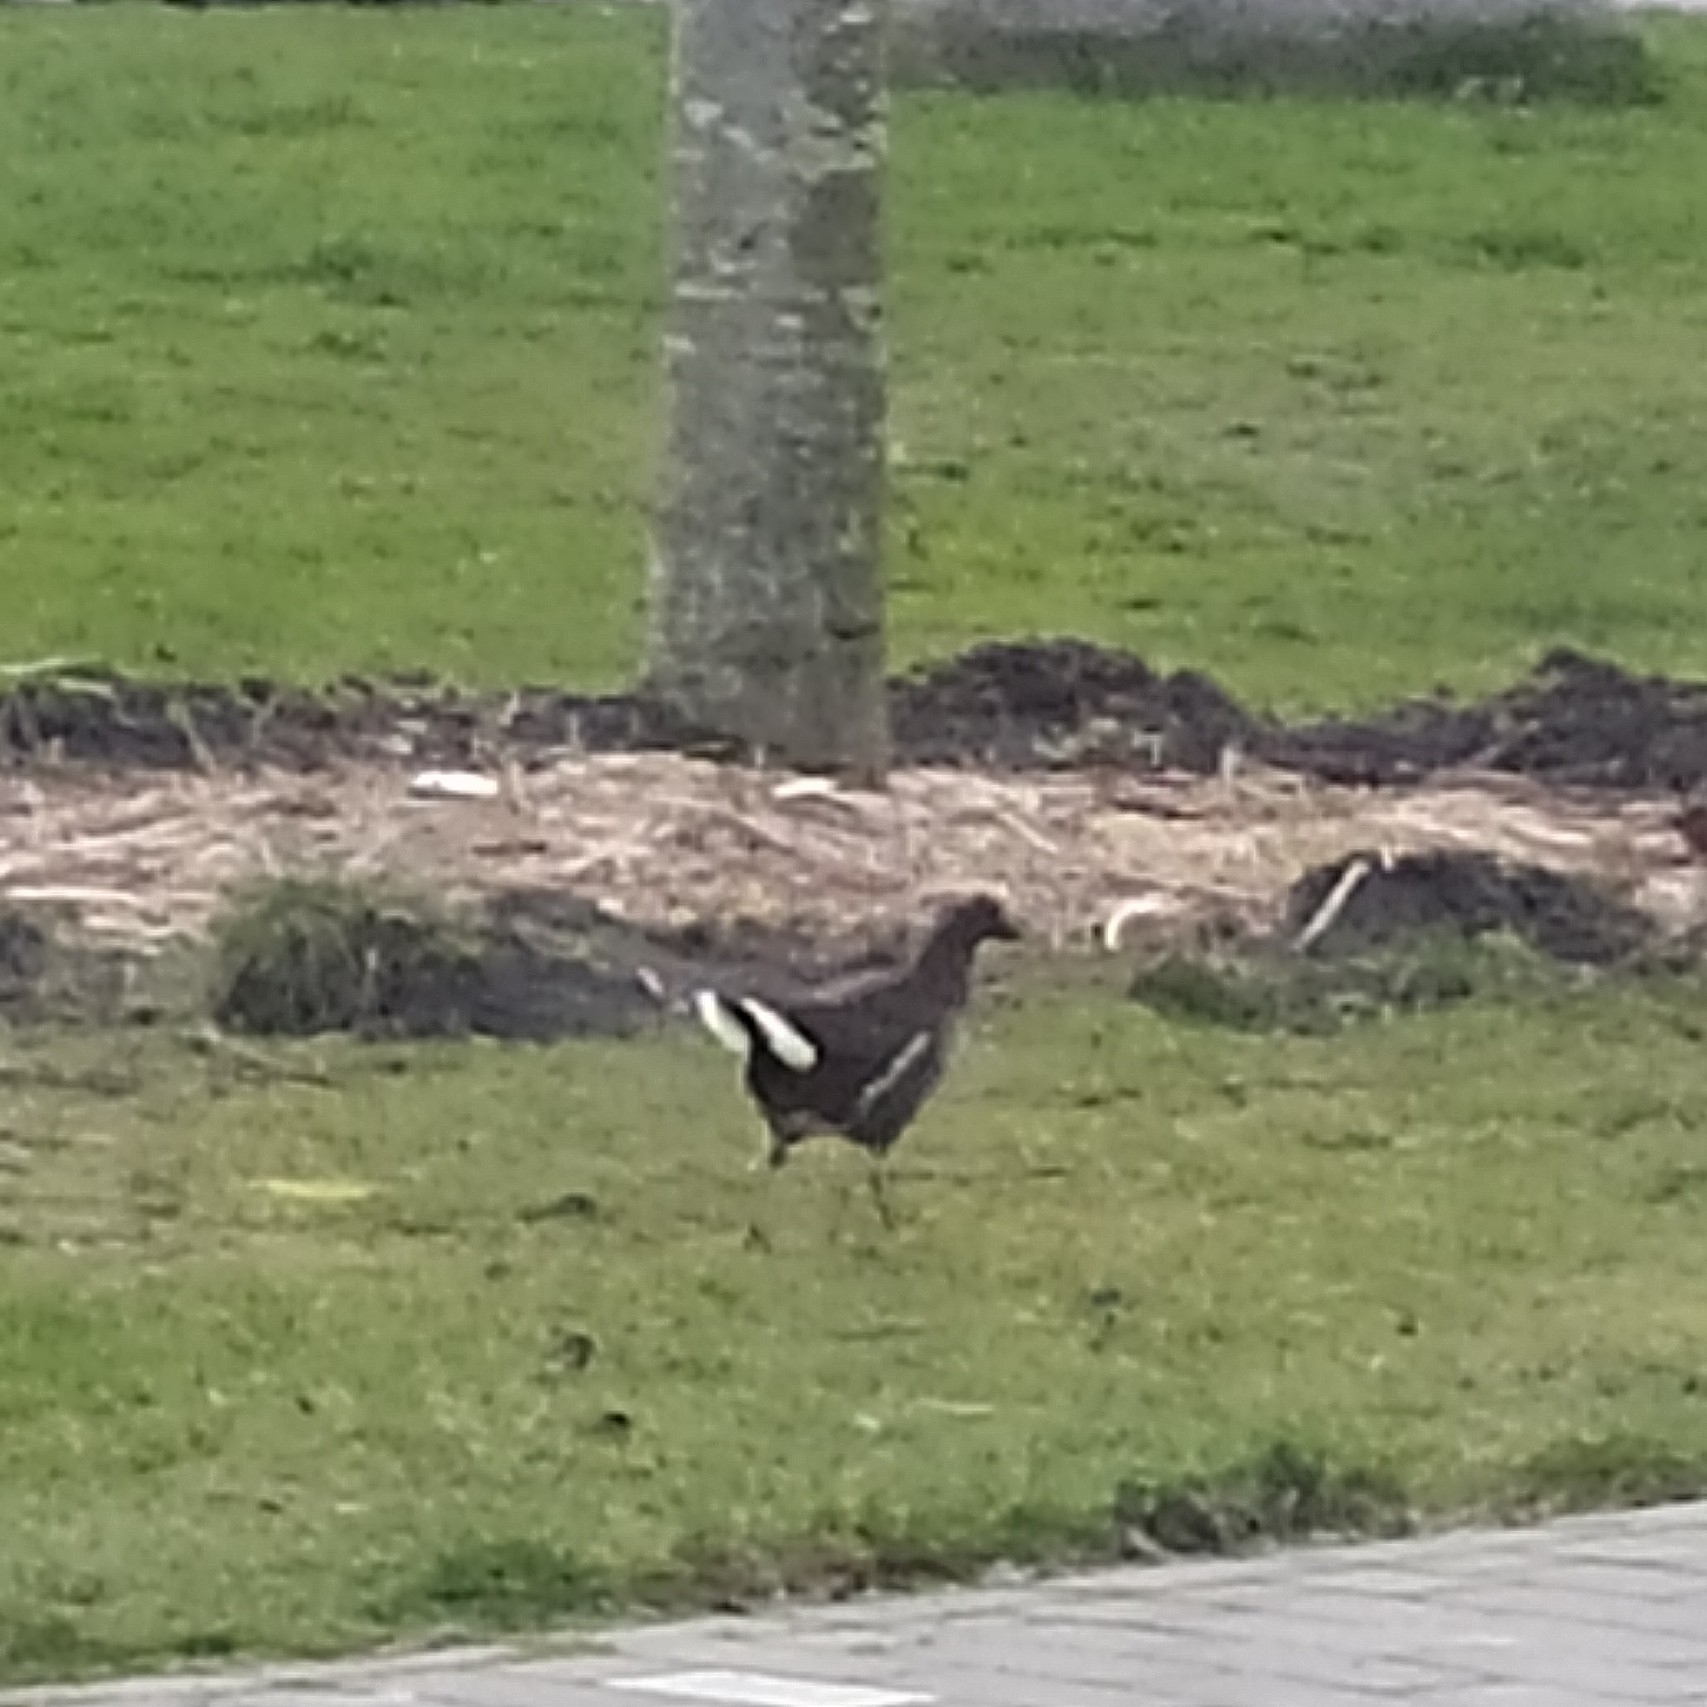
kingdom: Animalia
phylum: Chordata
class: Aves
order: Gruiformes
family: Rallidae
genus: Gallinula
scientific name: Gallinula chloropus
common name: Common moorhen
